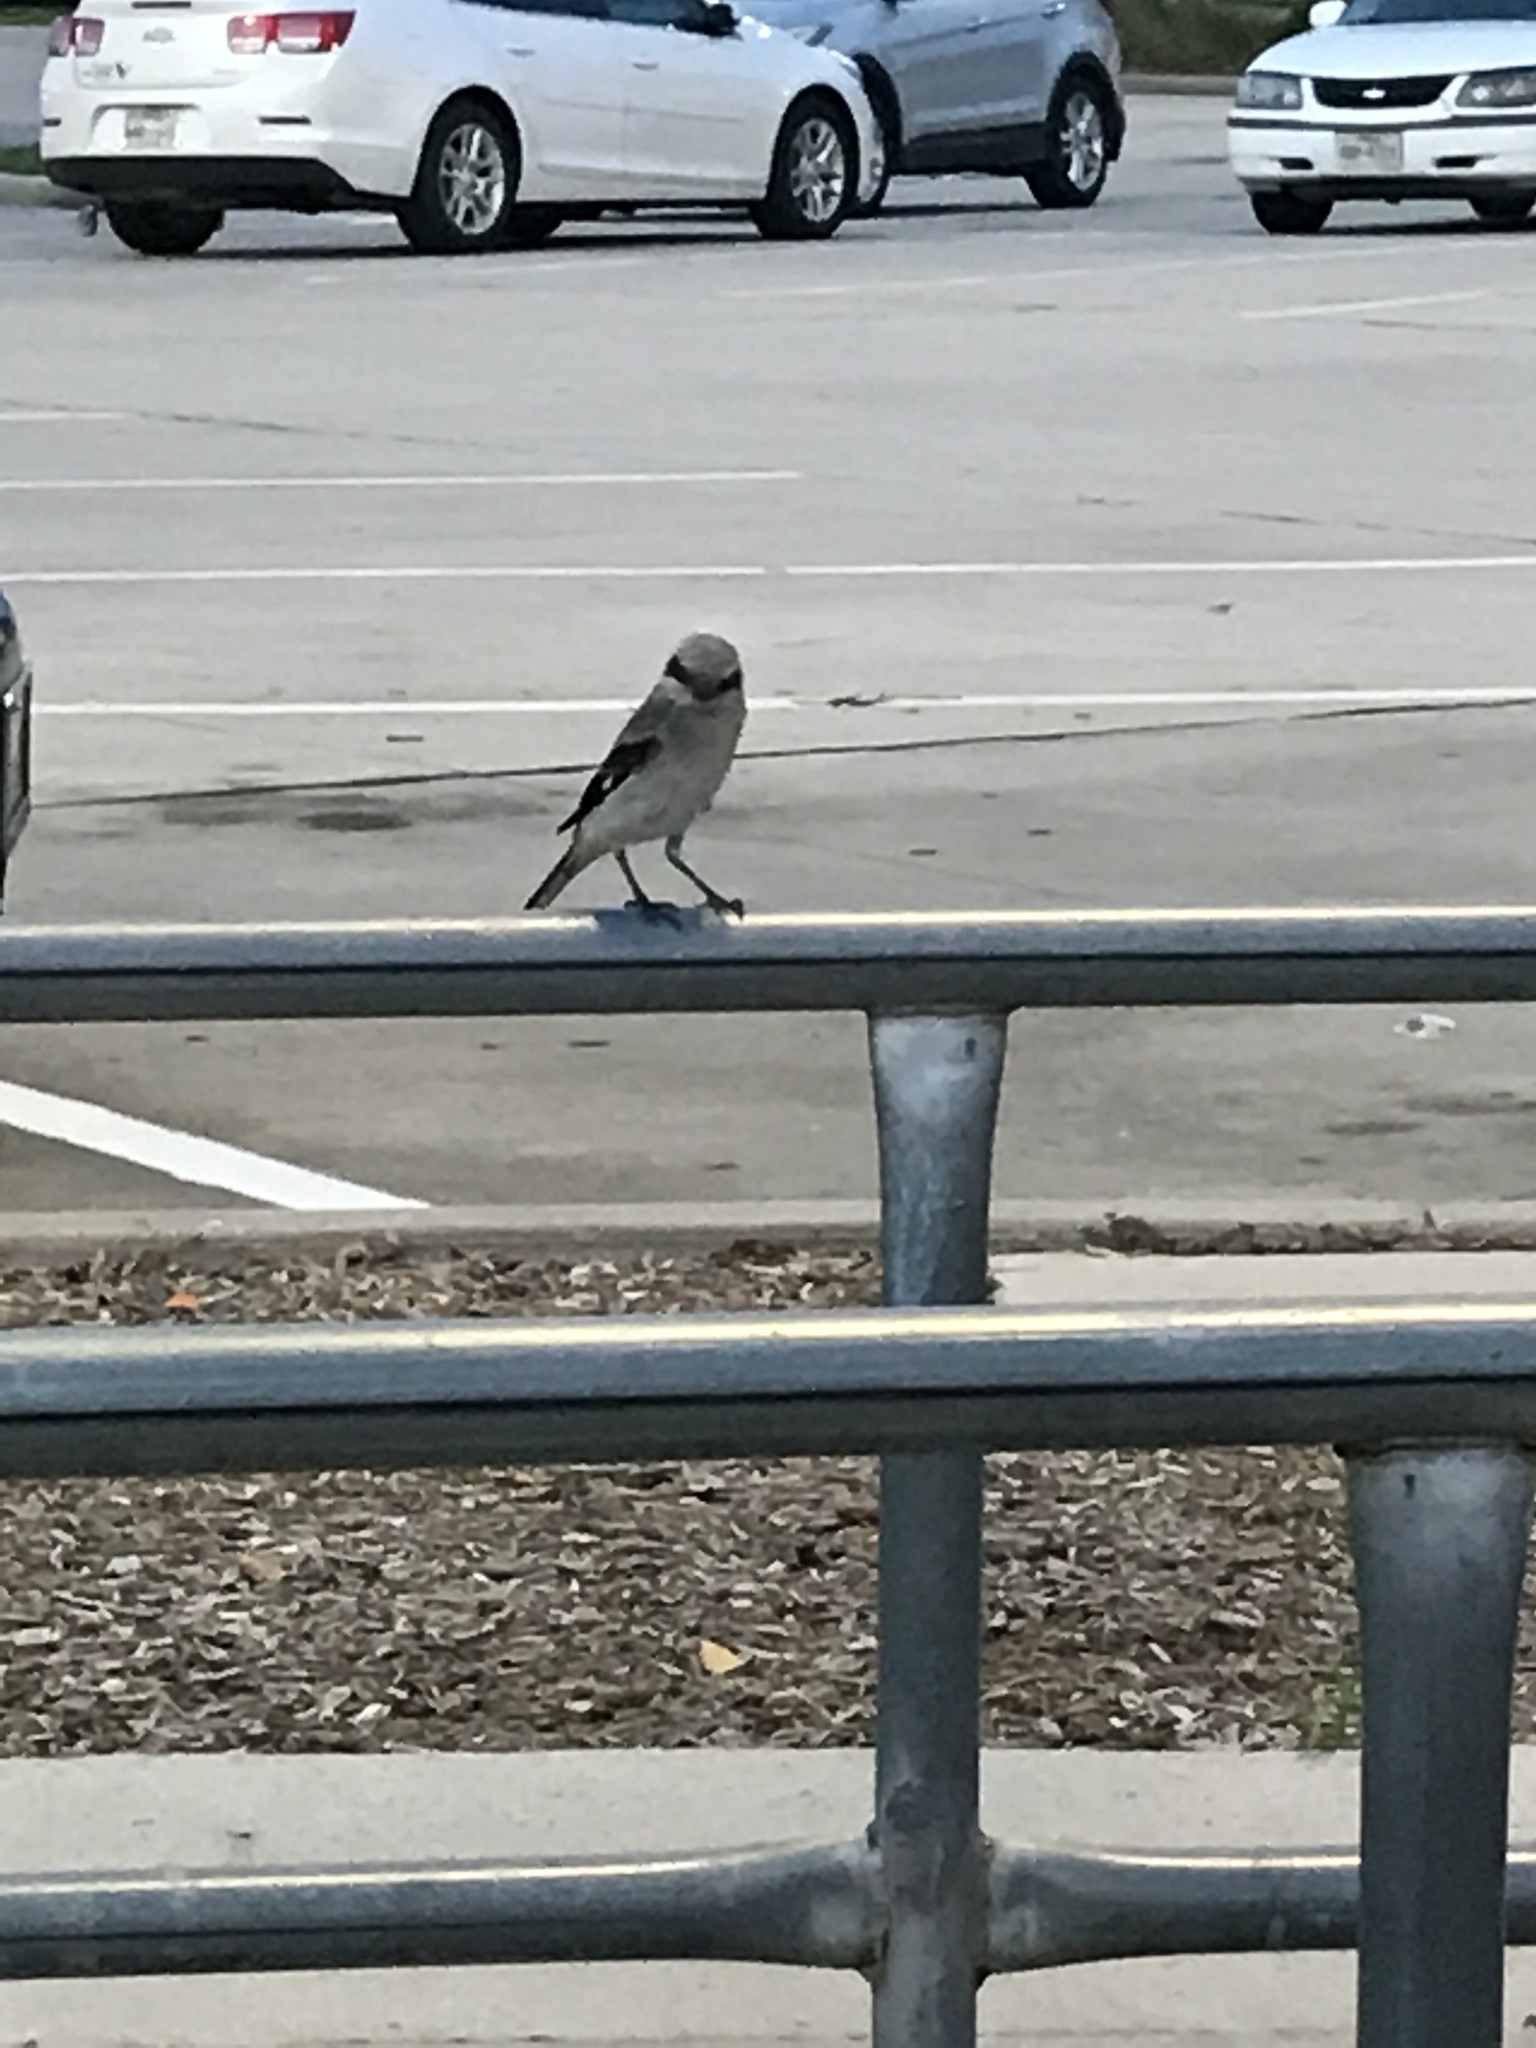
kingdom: Animalia
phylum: Chordata
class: Aves
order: Passeriformes
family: Laniidae
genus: Lanius
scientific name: Lanius ludovicianus
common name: Loggerhead shrike
